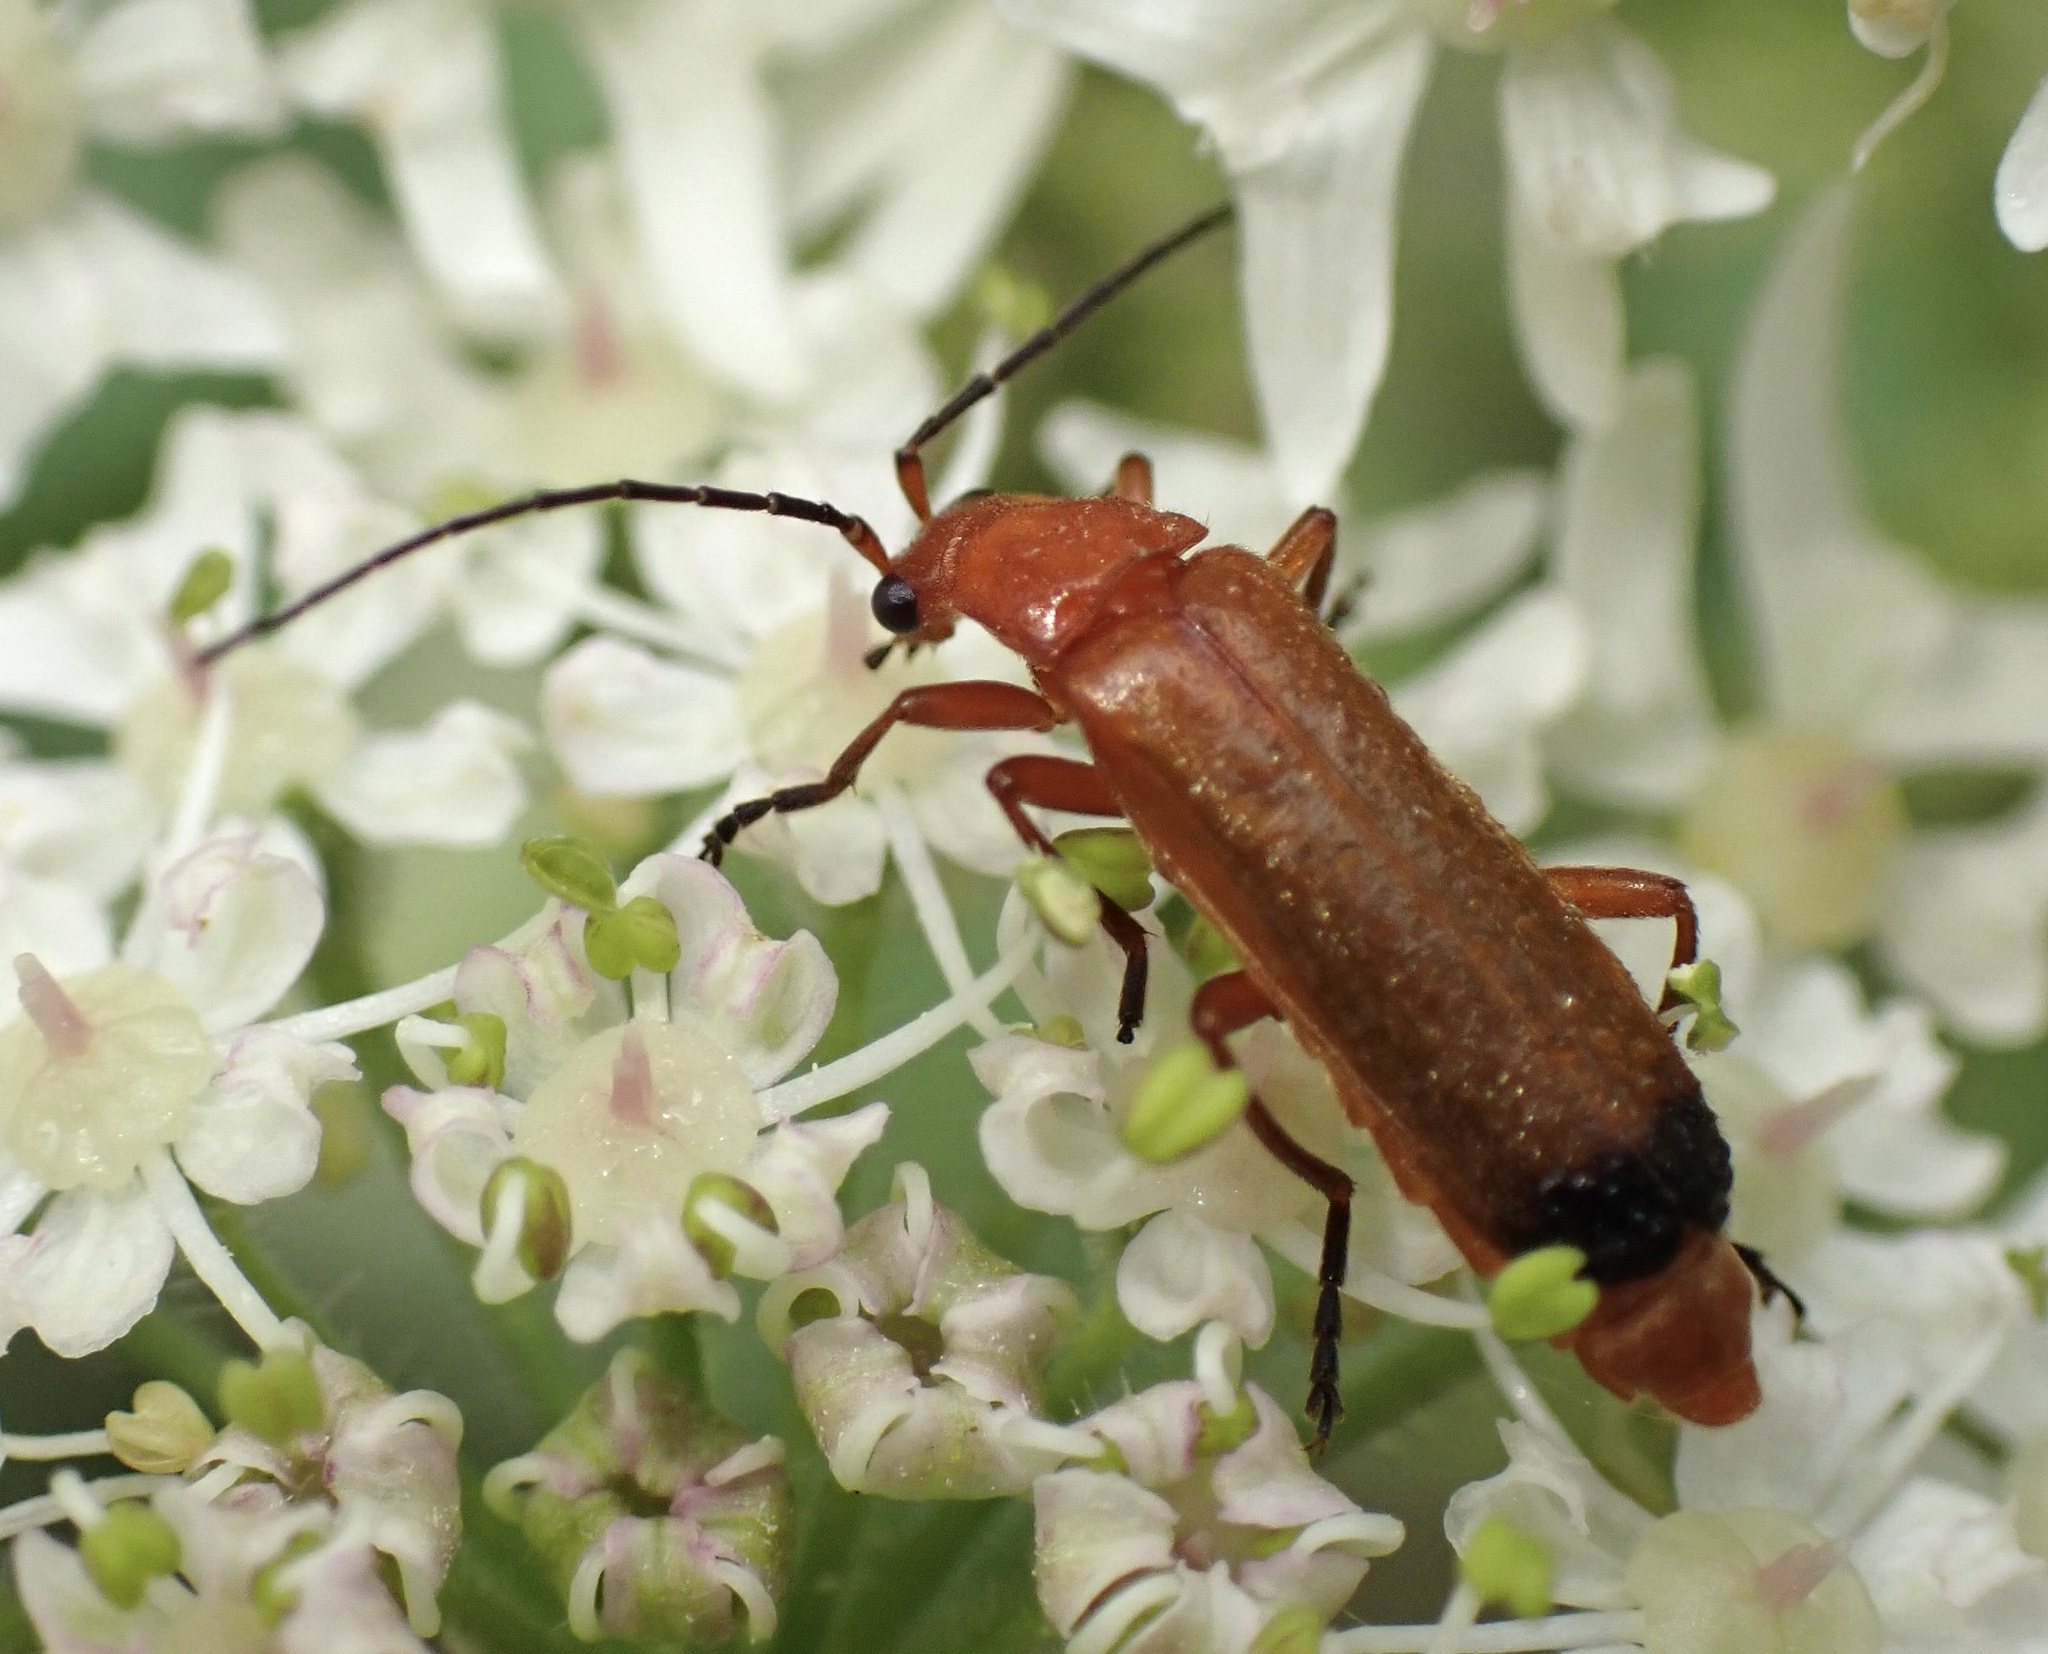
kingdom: Animalia
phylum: Arthropoda
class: Insecta
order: Coleoptera
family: Cantharidae
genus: Rhagonycha
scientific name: Rhagonycha fulva
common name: Common red soldier beetle
